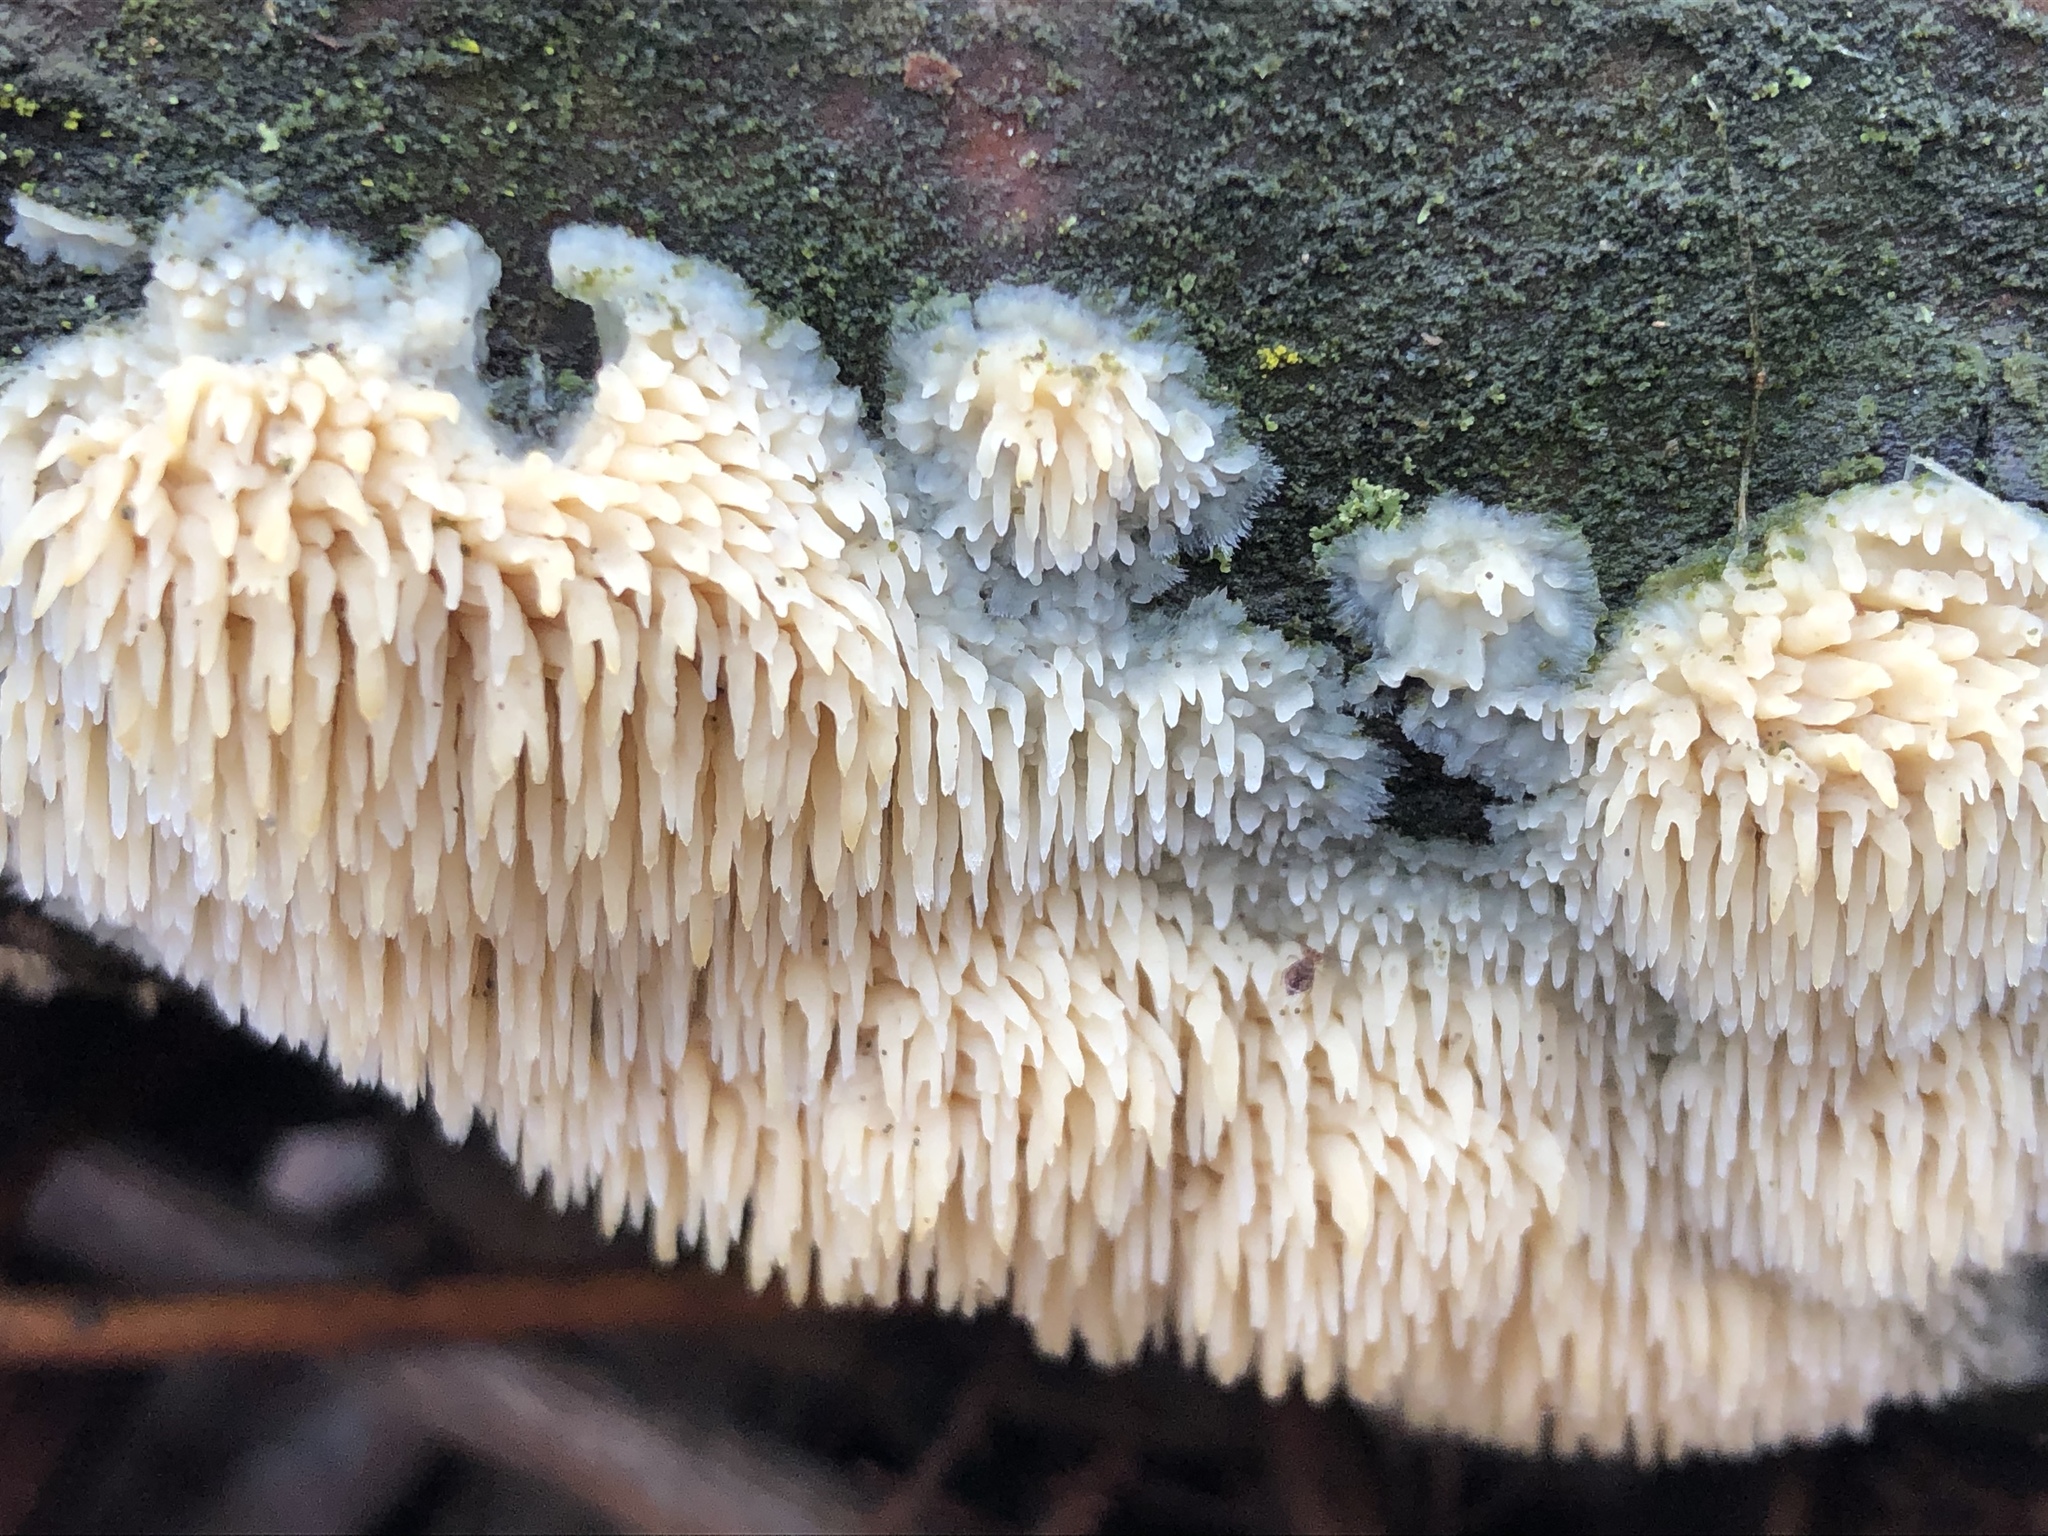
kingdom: Fungi
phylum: Basidiomycota
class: Agaricomycetes
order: Agaricales
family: Radulomycetaceae
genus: Radulomyces
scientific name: Radulomyces copelandii
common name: Asian beauty
